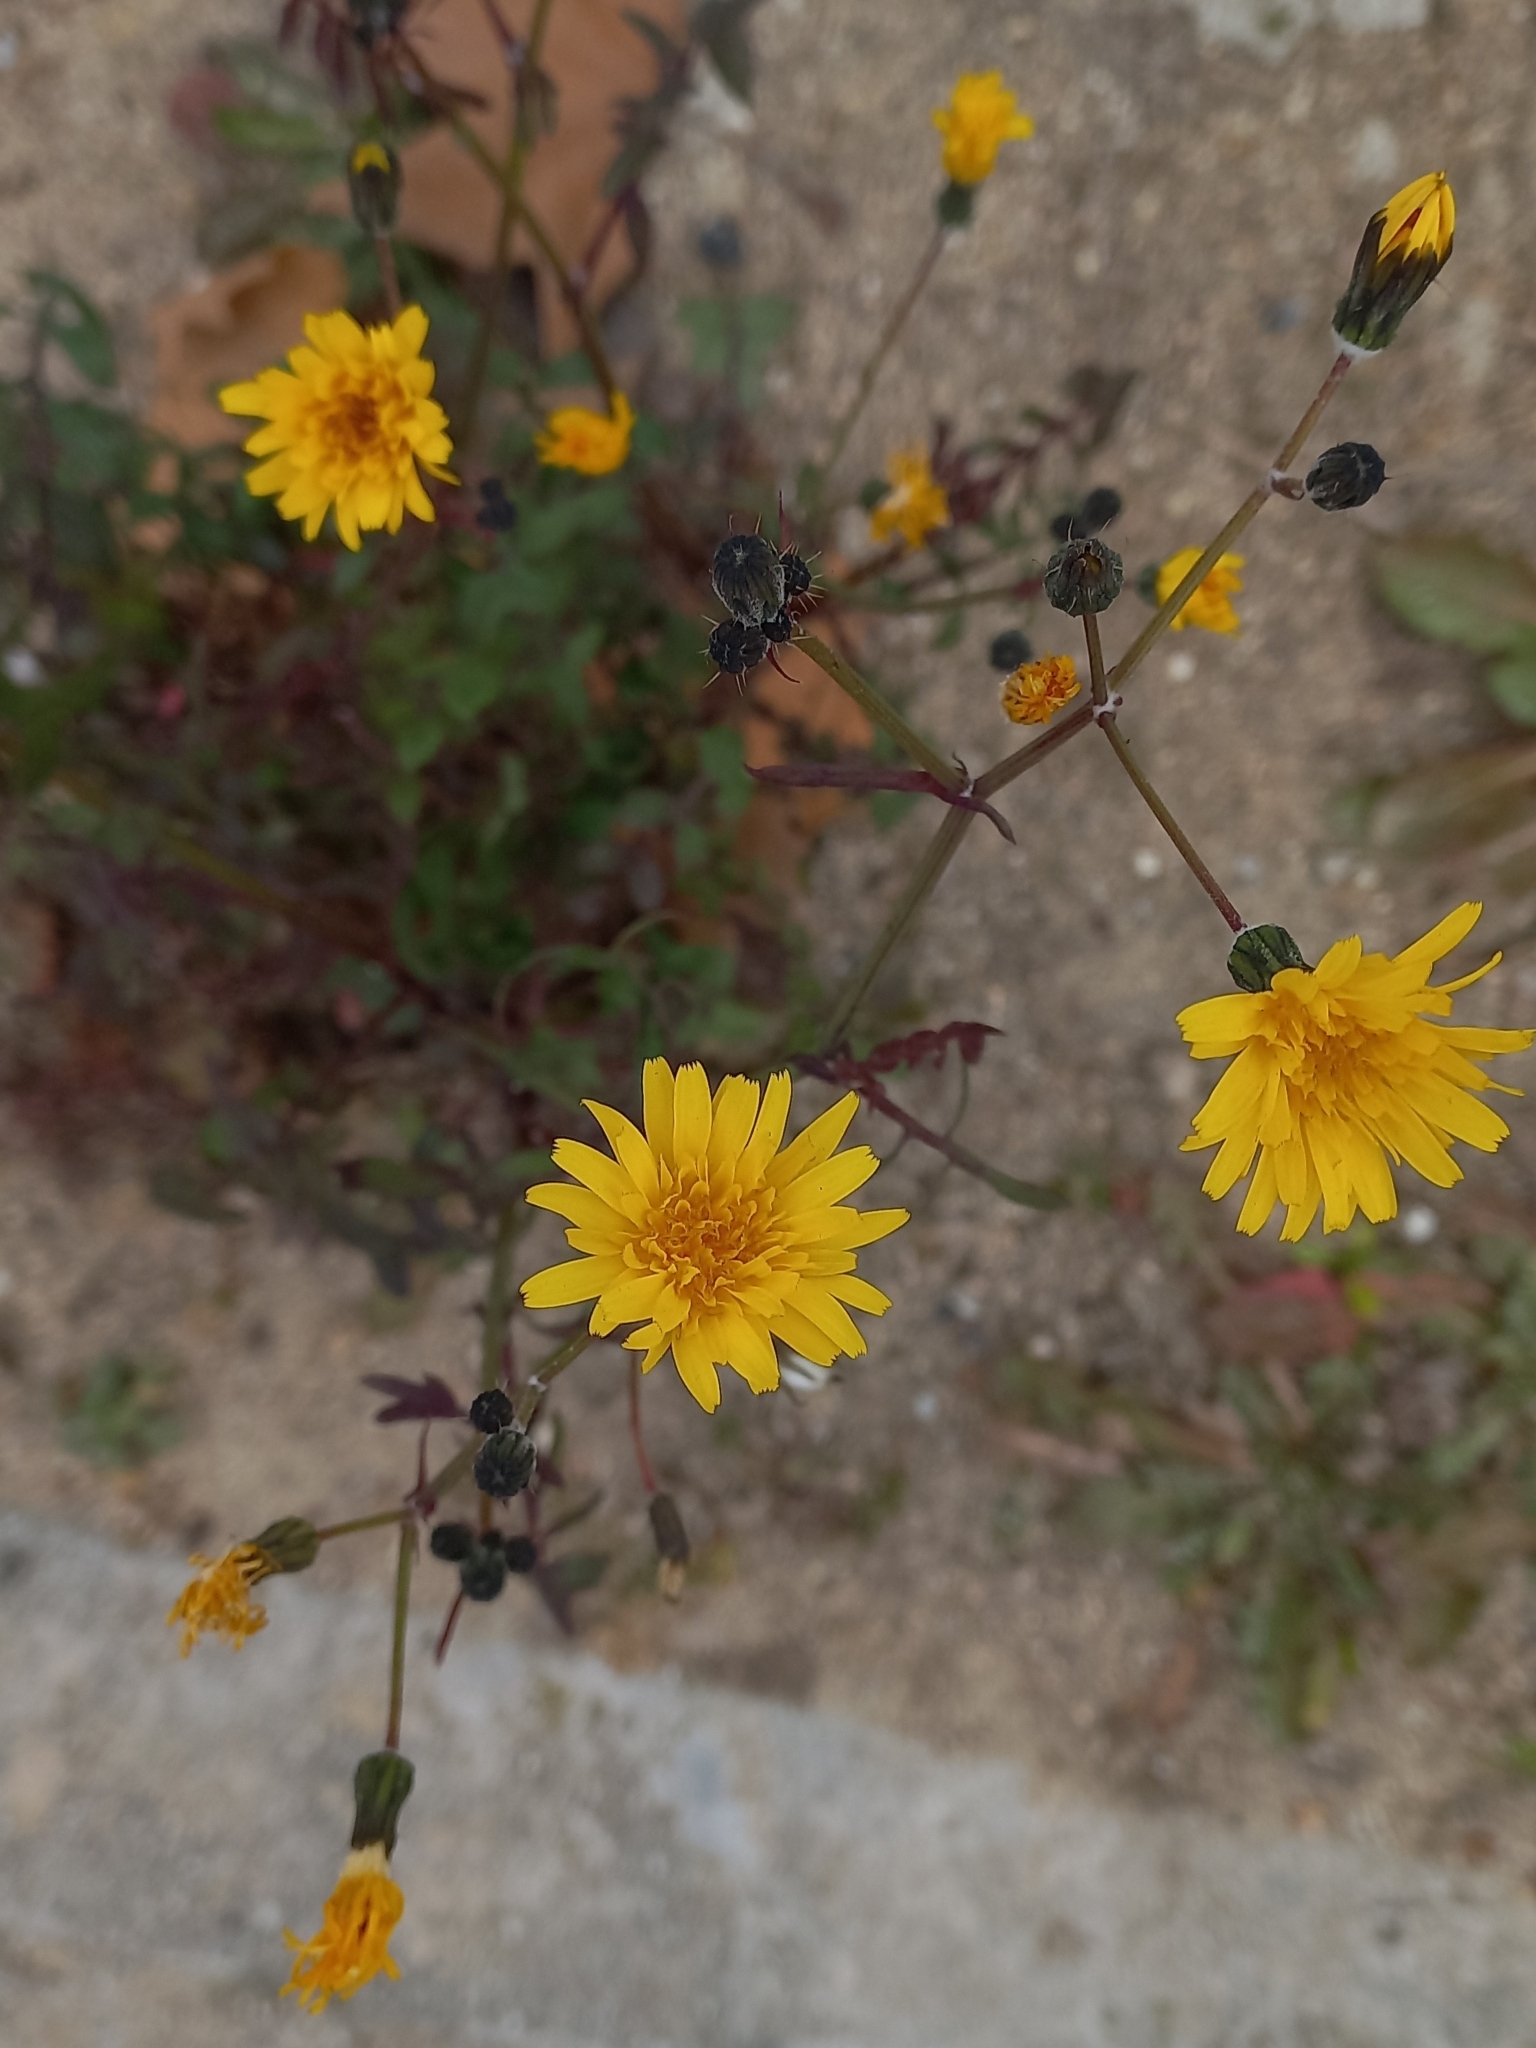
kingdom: Plantae
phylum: Tracheophyta
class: Magnoliopsida
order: Asterales
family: Asteraceae
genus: Sonchus
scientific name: Sonchus tenerrimus
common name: Clammy sowthistle
